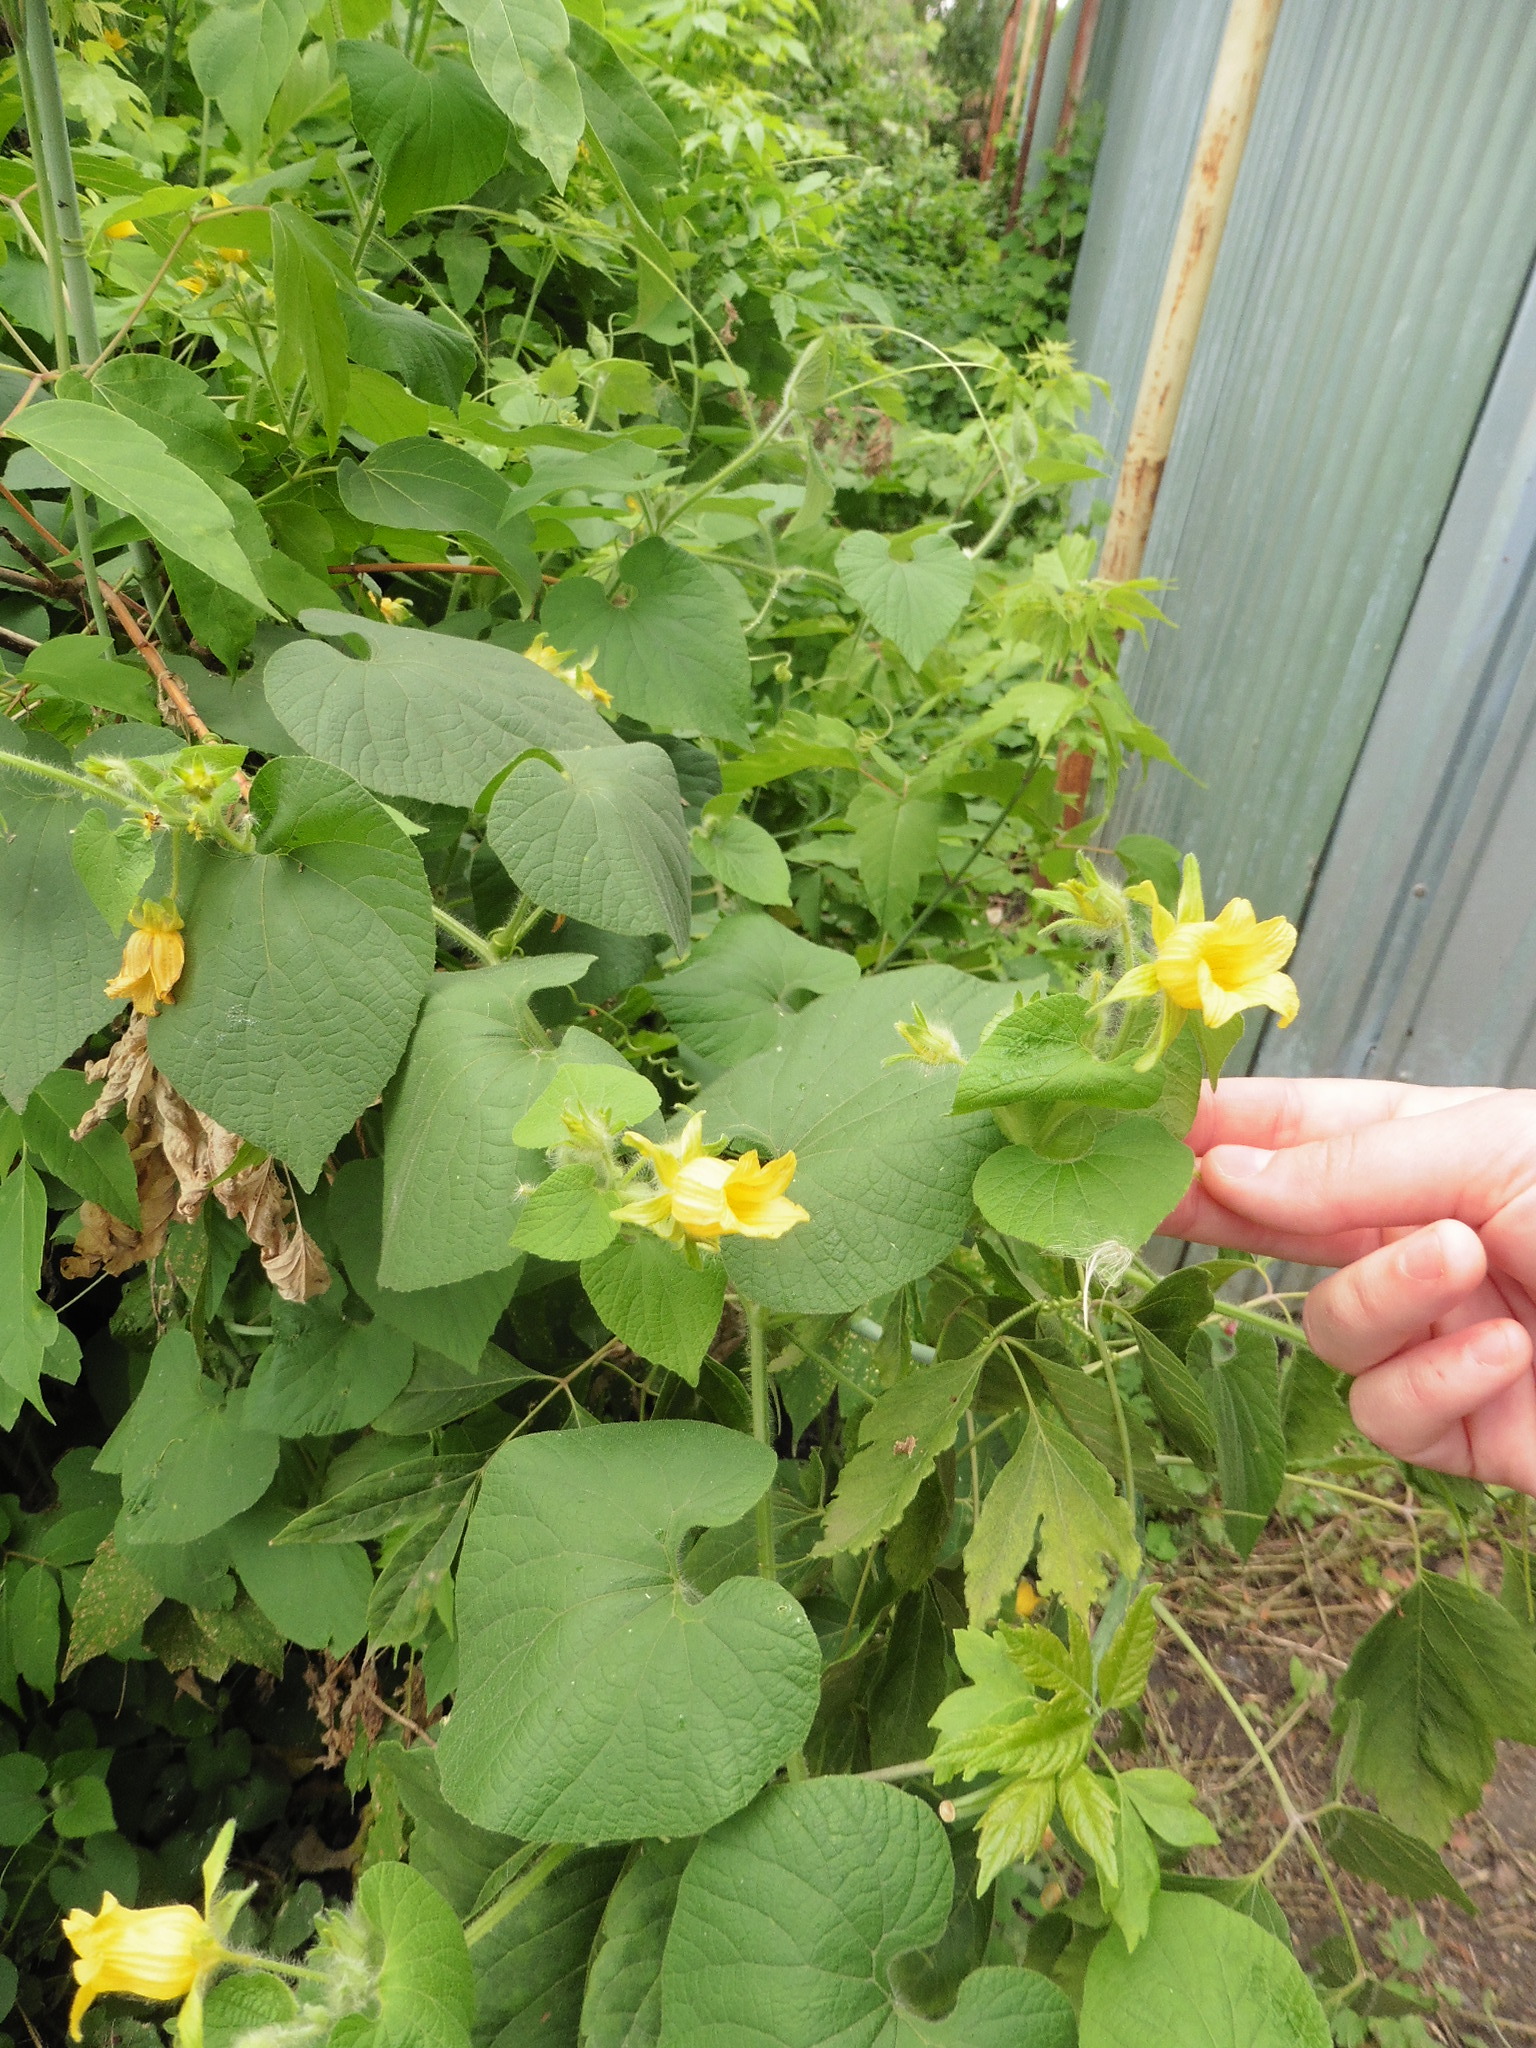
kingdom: Plantae
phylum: Tracheophyta
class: Magnoliopsida
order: Cucurbitales
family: Cucurbitaceae
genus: Thladiantha
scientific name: Thladiantha dubia
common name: Manchu tubergourd
